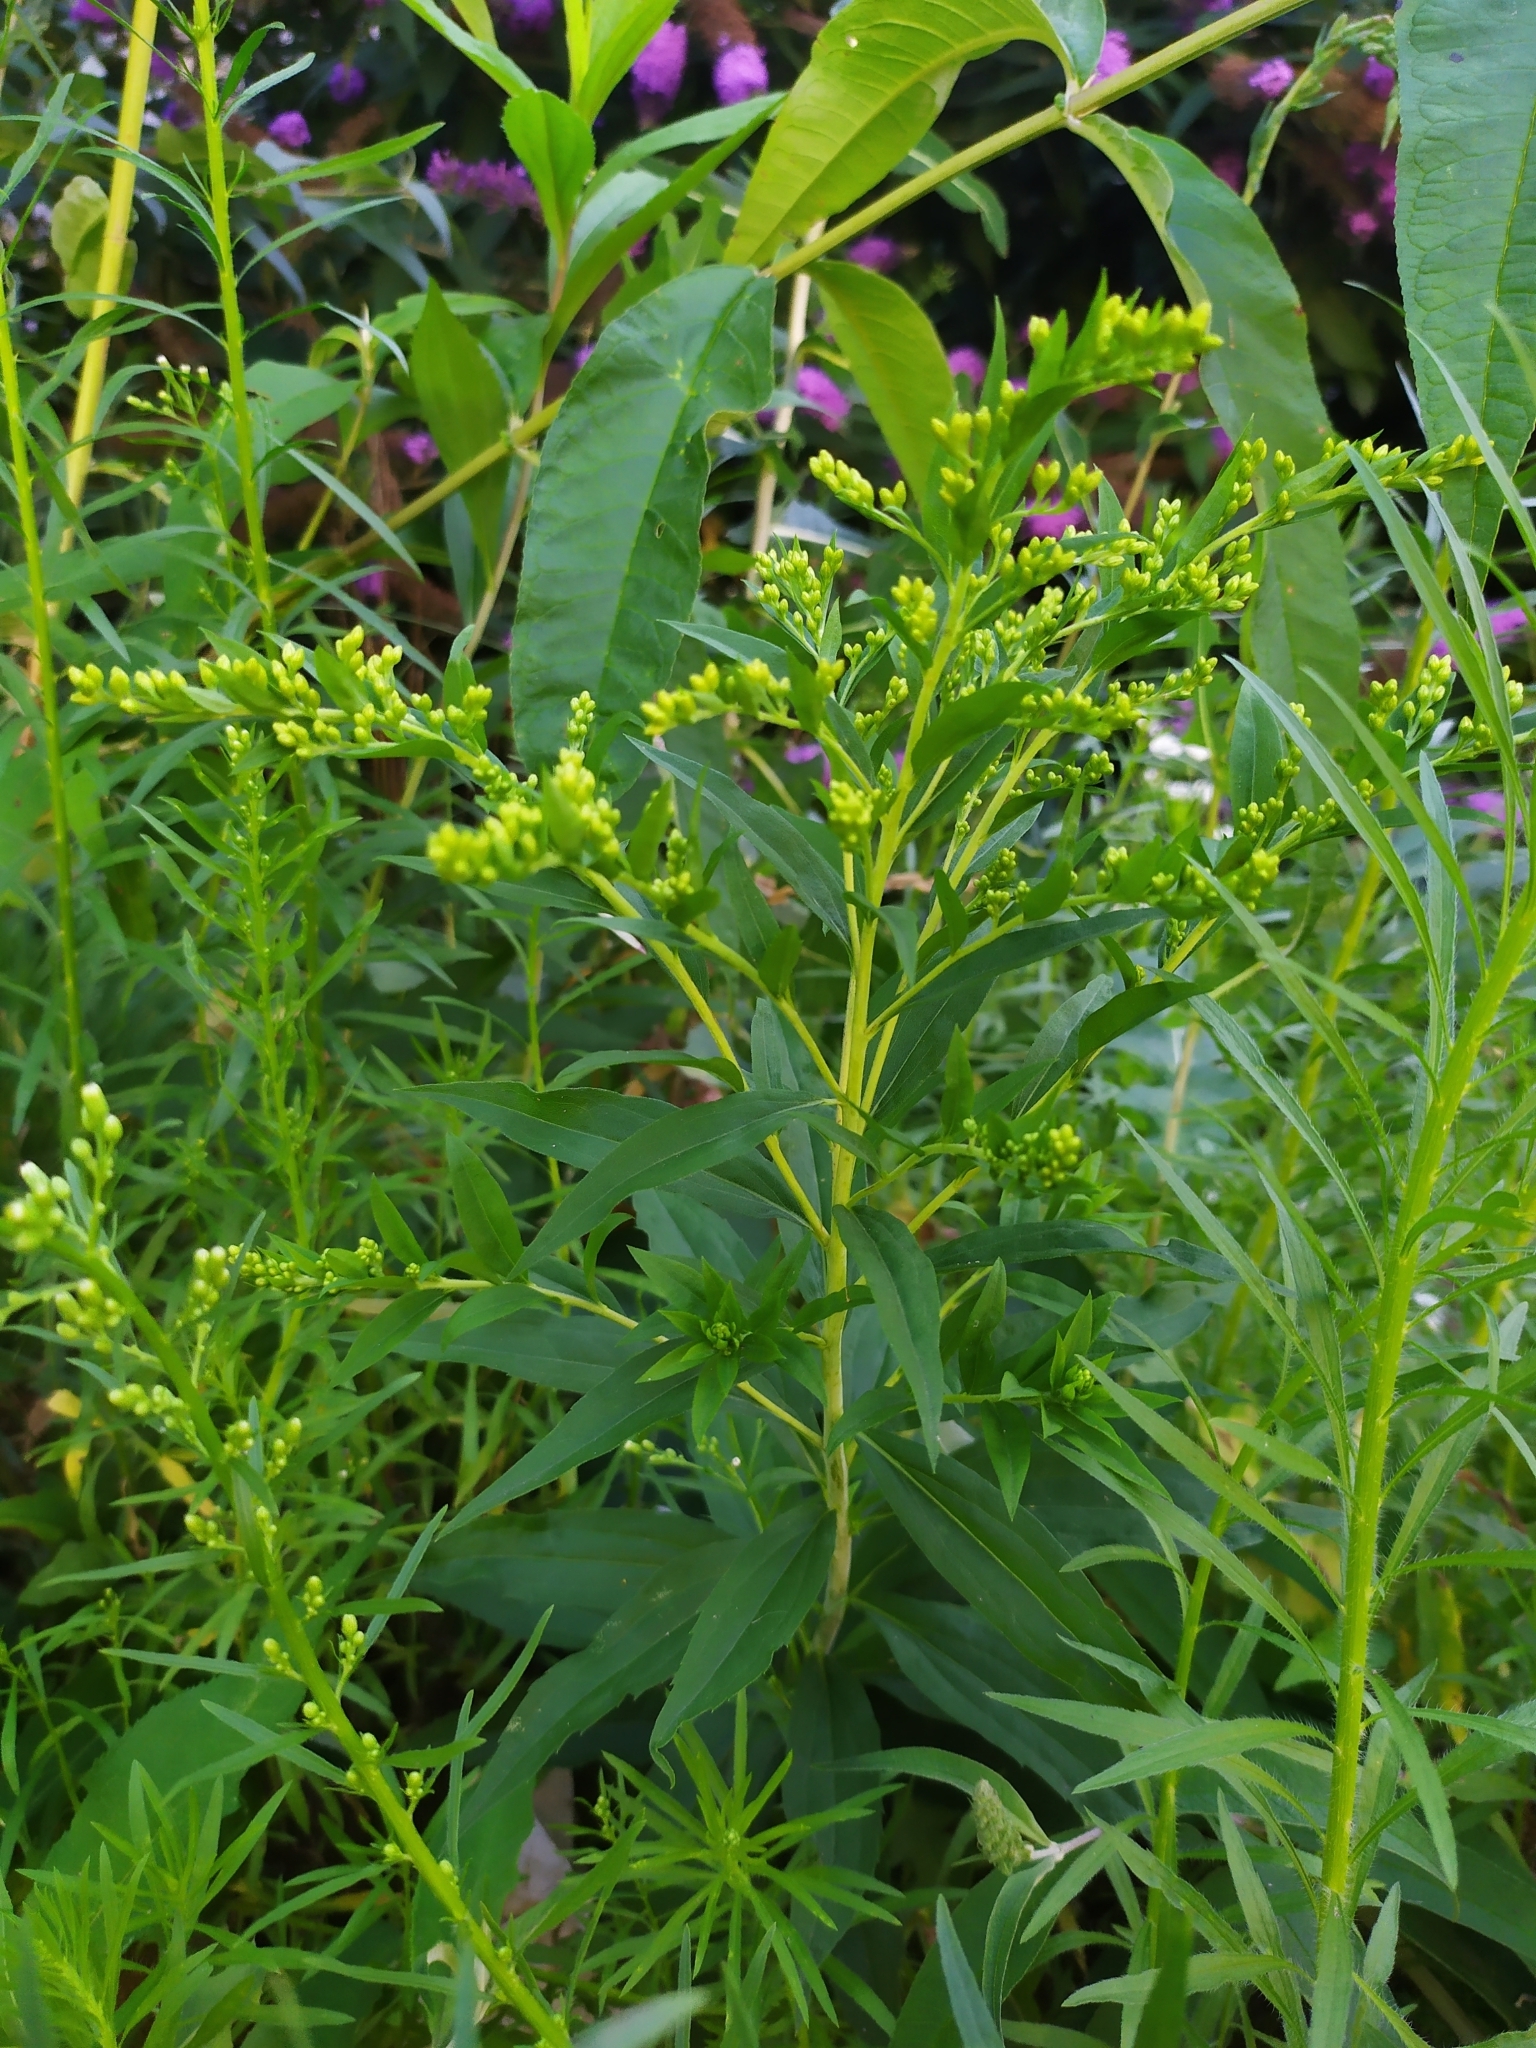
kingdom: Plantae
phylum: Tracheophyta
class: Magnoliopsida
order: Asterales
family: Asteraceae
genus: Solidago
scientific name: Solidago gigantea
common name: Giant goldenrod
